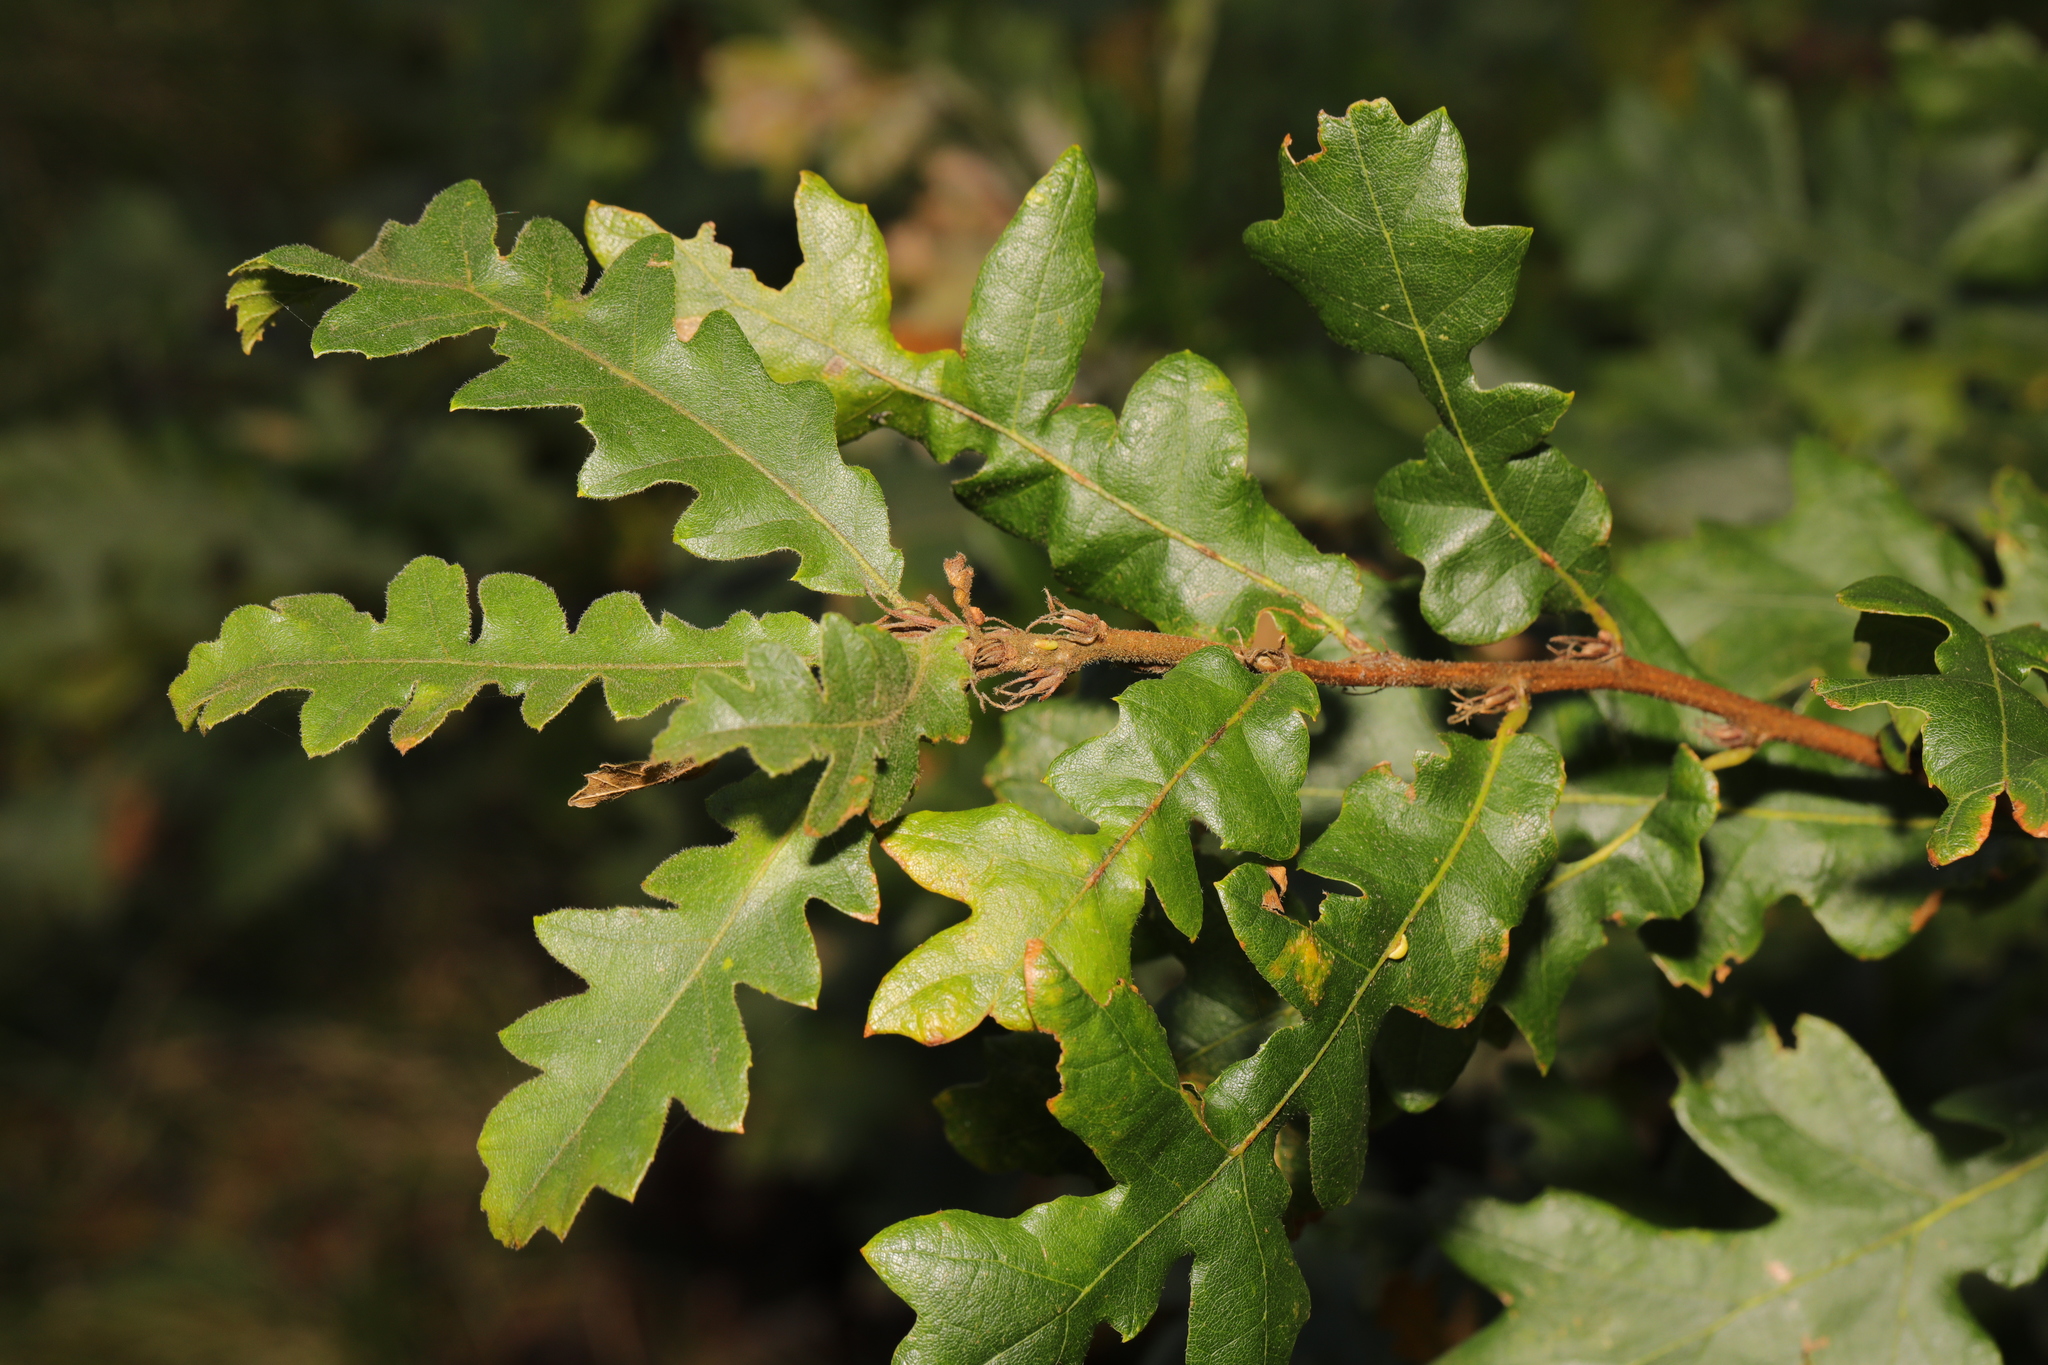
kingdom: Plantae
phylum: Tracheophyta
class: Magnoliopsida
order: Fagales
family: Fagaceae
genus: Quercus
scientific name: Quercus cerris
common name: Turkey oak
